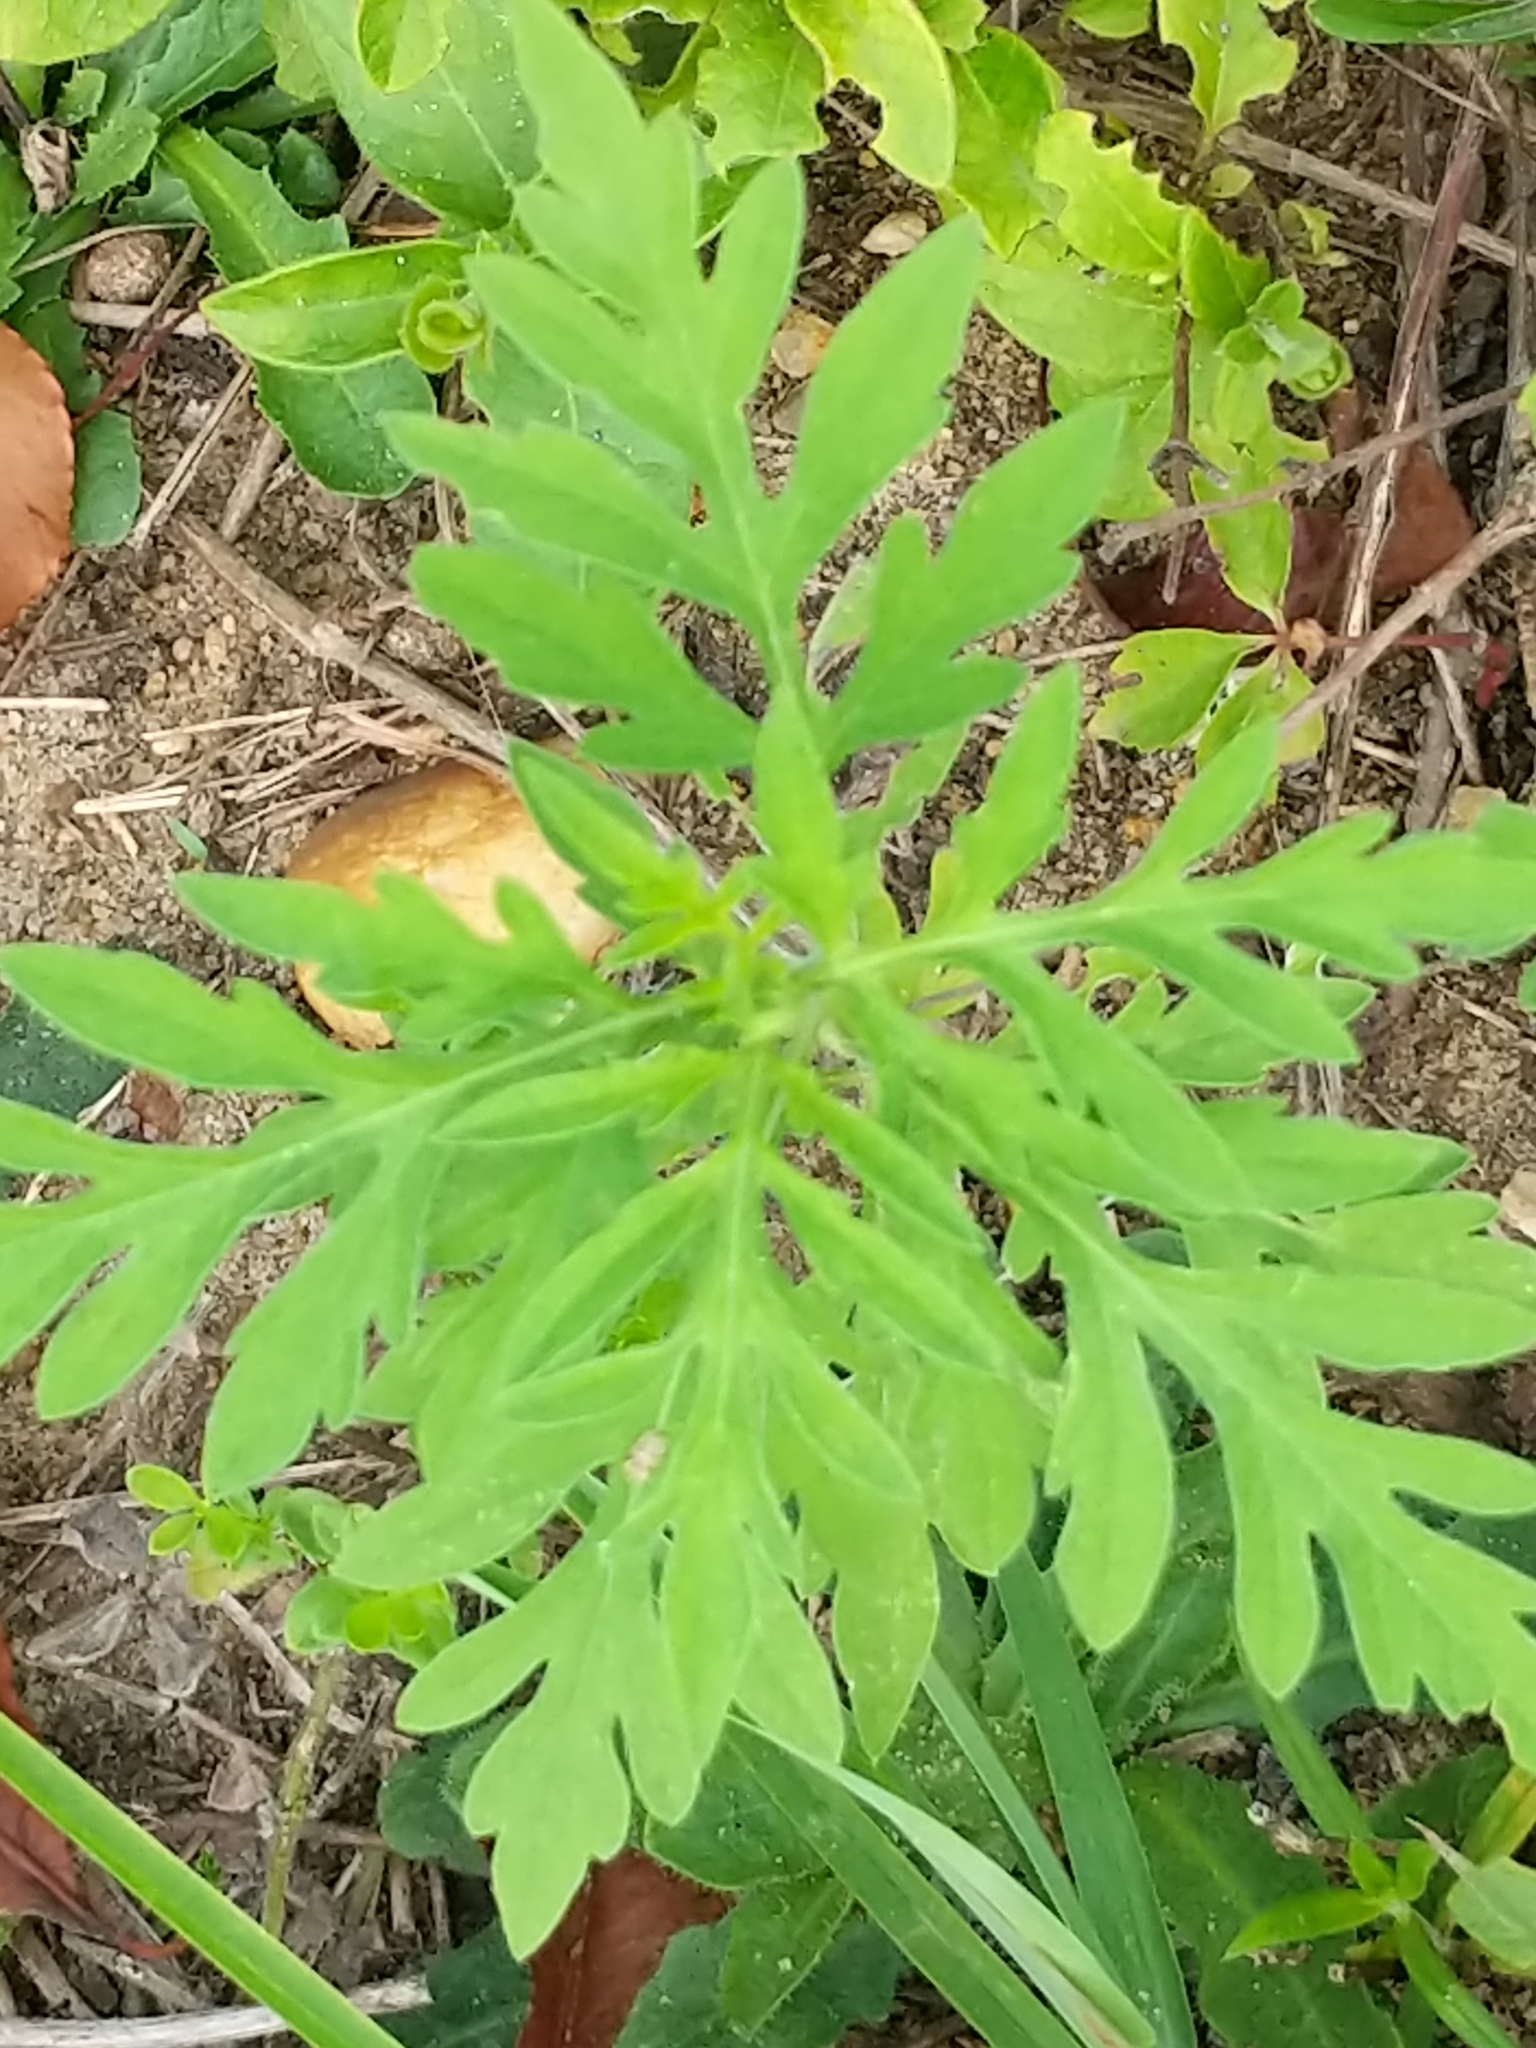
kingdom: Plantae
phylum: Tracheophyta
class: Magnoliopsida
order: Asterales
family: Asteraceae
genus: Ambrosia
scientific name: Ambrosia artemisiifolia
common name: Annual ragweed
